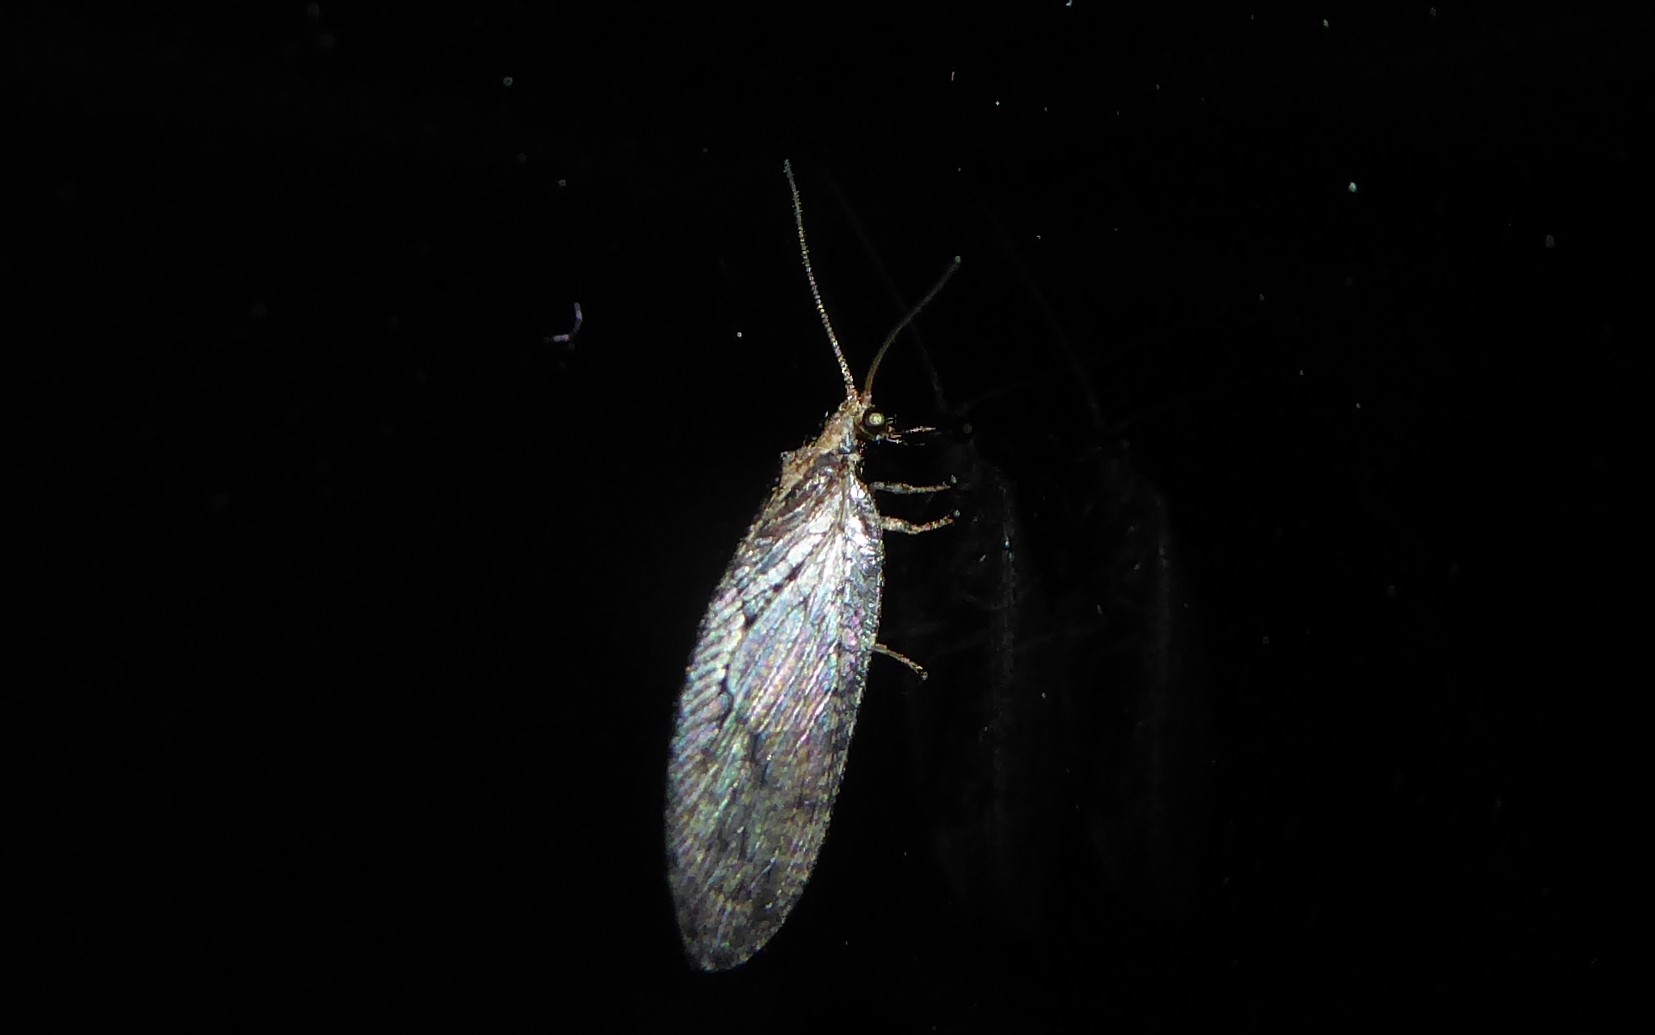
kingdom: Animalia
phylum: Arthropoda
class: Insecta
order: Neuroptera
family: Hemerobiidae
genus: Wesmaelius
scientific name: Wesmaelius subnebulosus
